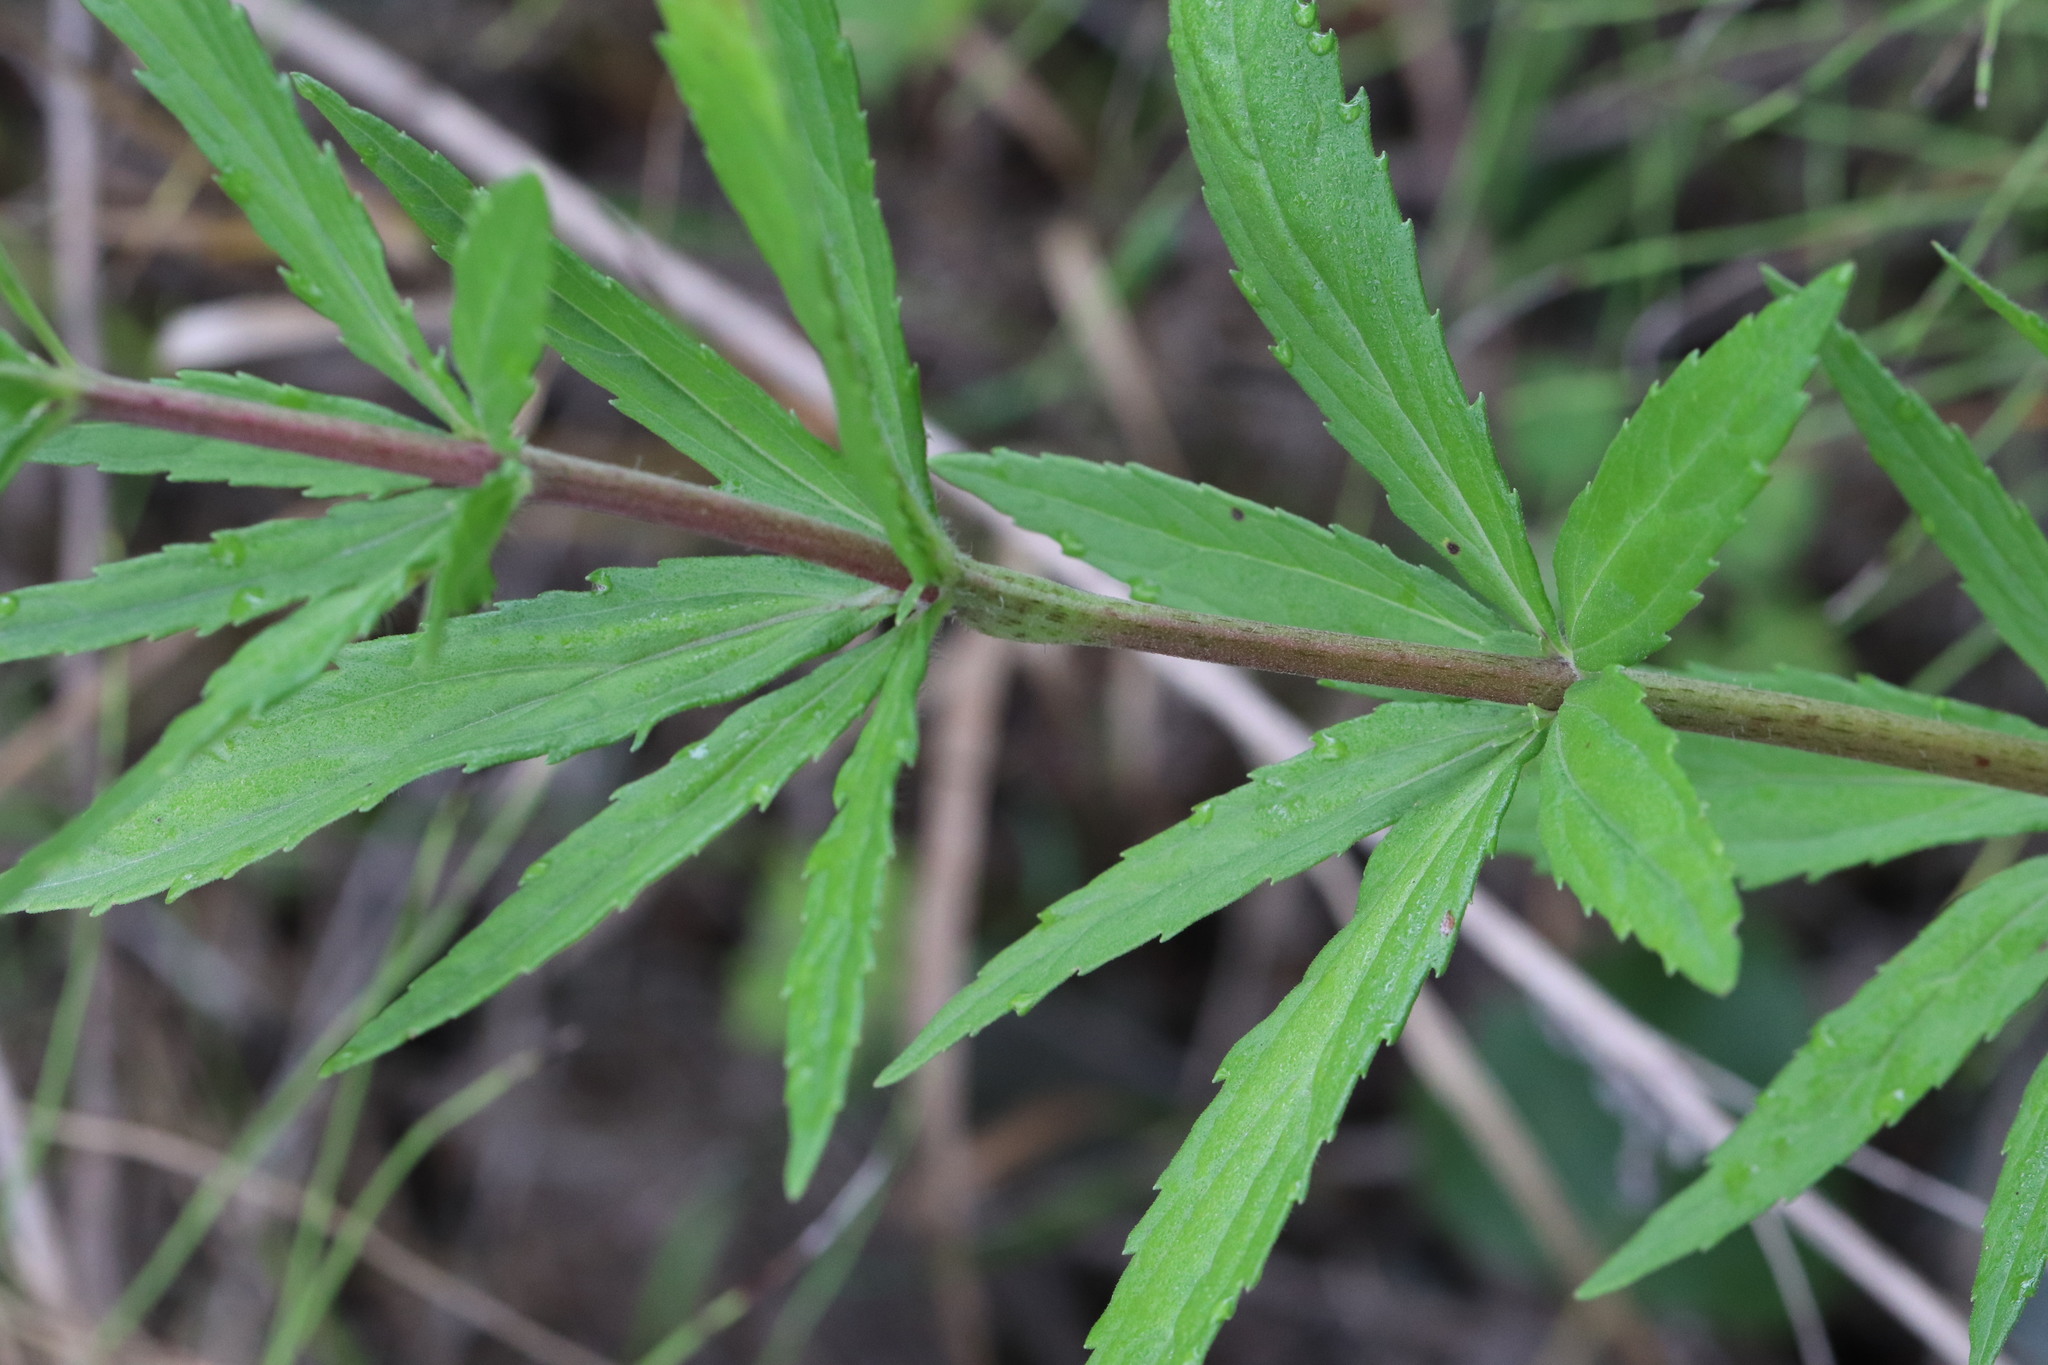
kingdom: Plantae
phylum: Tracheophyta
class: Magnoliopsida
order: Asterales
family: Asteraceae
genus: Eupatorium
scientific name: Eupatorium lindleyanum
